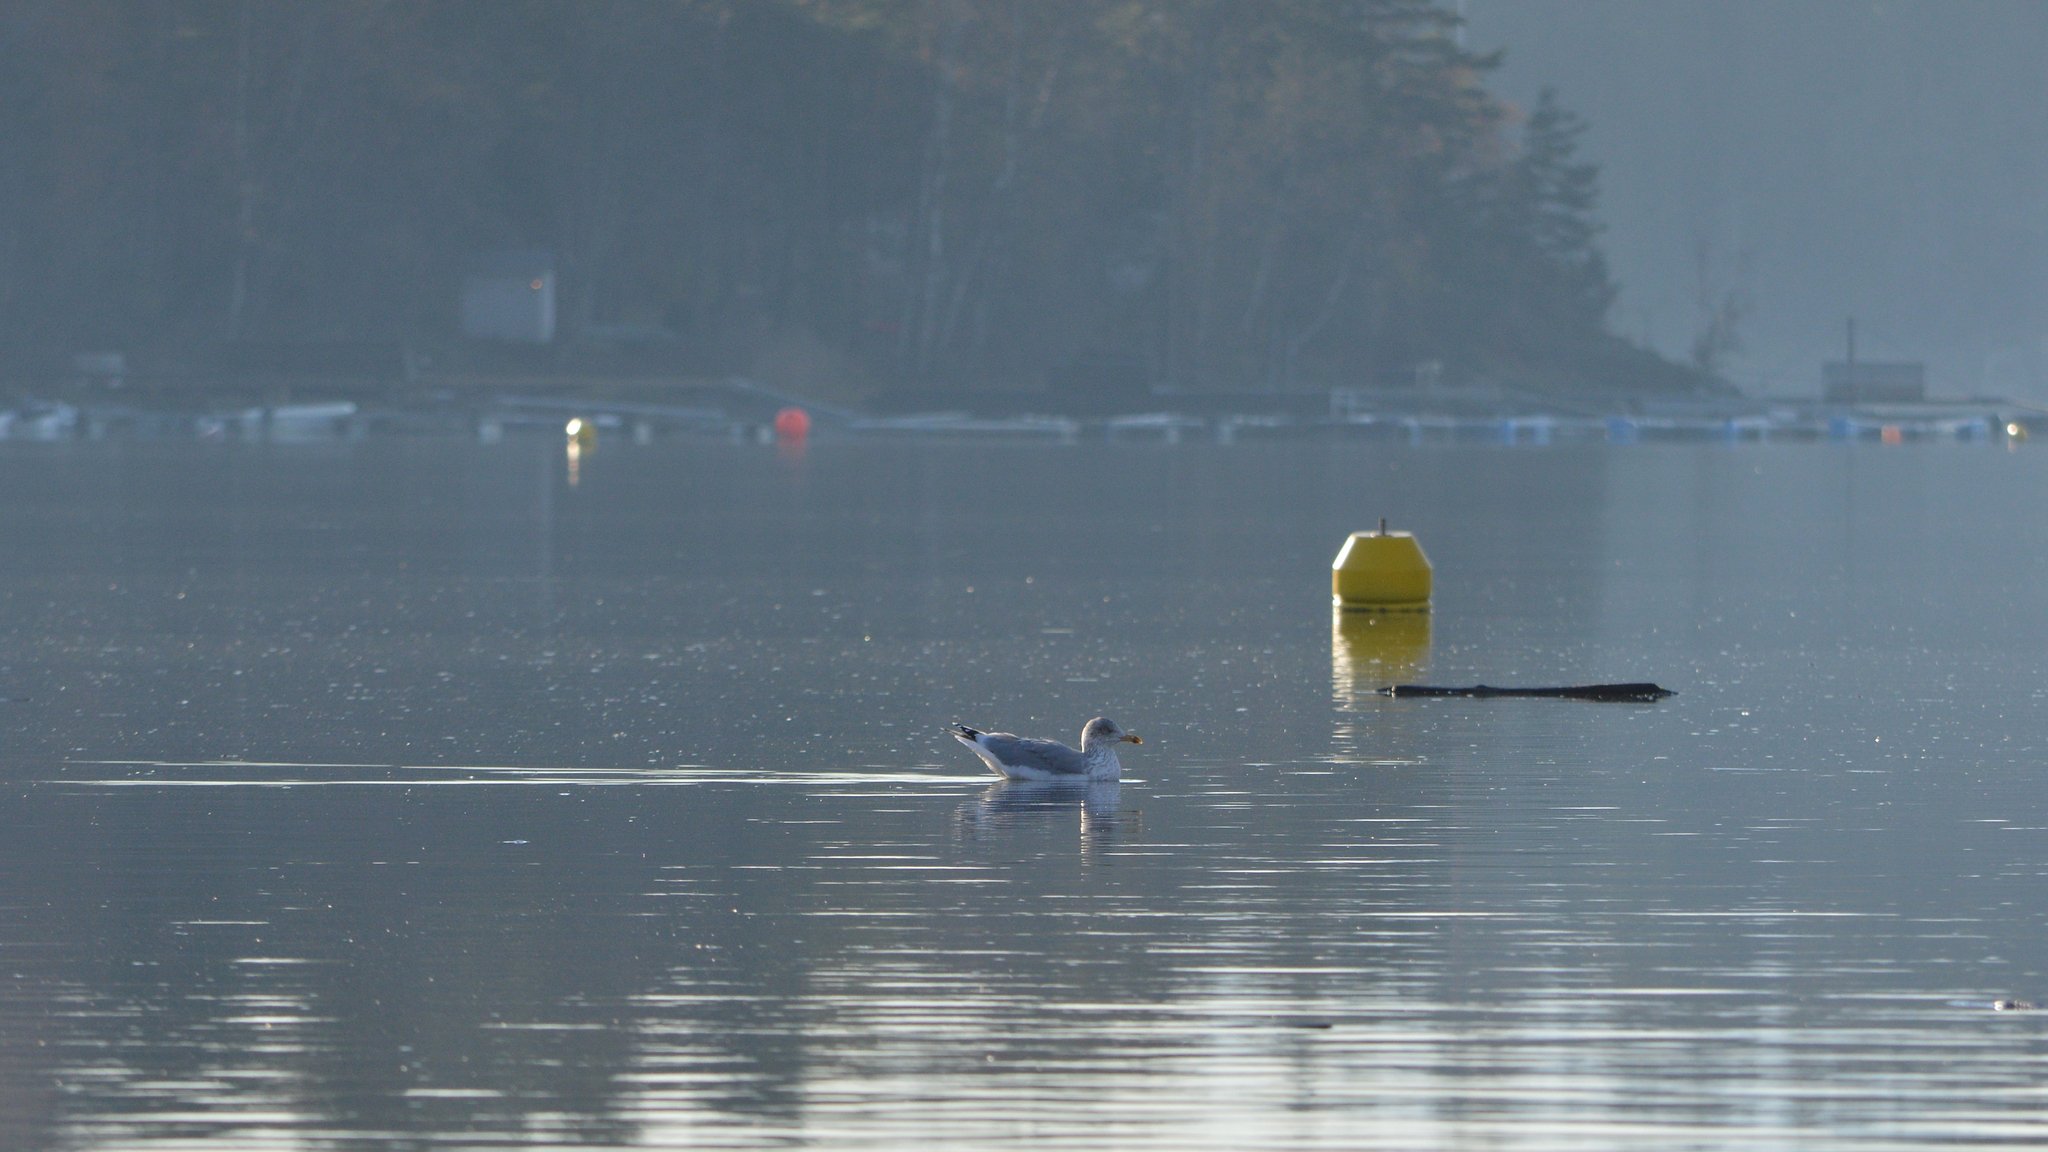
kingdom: Animalia
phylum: Chordata
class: Aves
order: Charadriiformes
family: Laridae
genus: Larus
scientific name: Larus argentatus
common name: Herring gull
